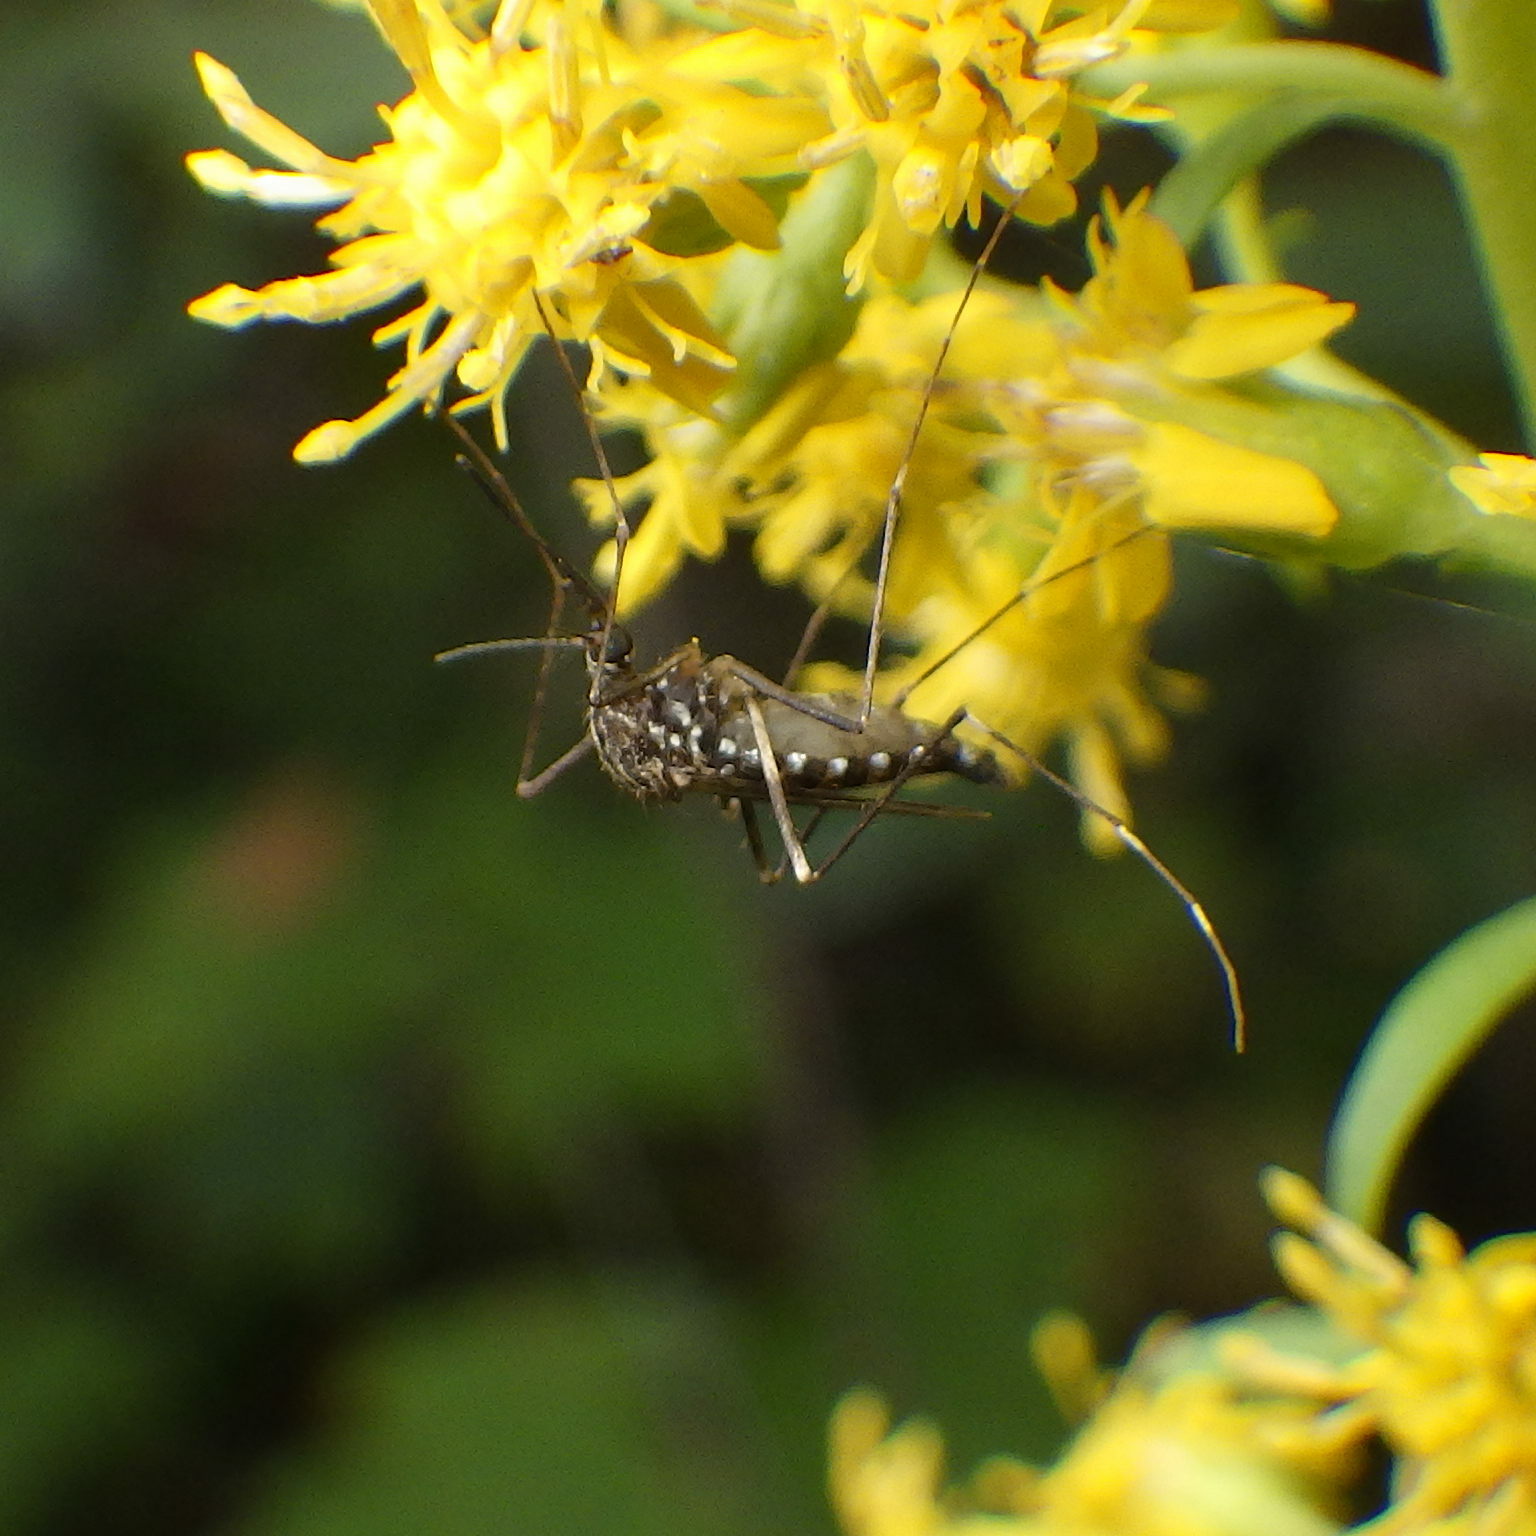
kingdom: Animalia
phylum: Arthropoda
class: Insecta
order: Diptera
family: Culicidae
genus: Aedes
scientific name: Aedes japonicus
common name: Asian bush mosquito
